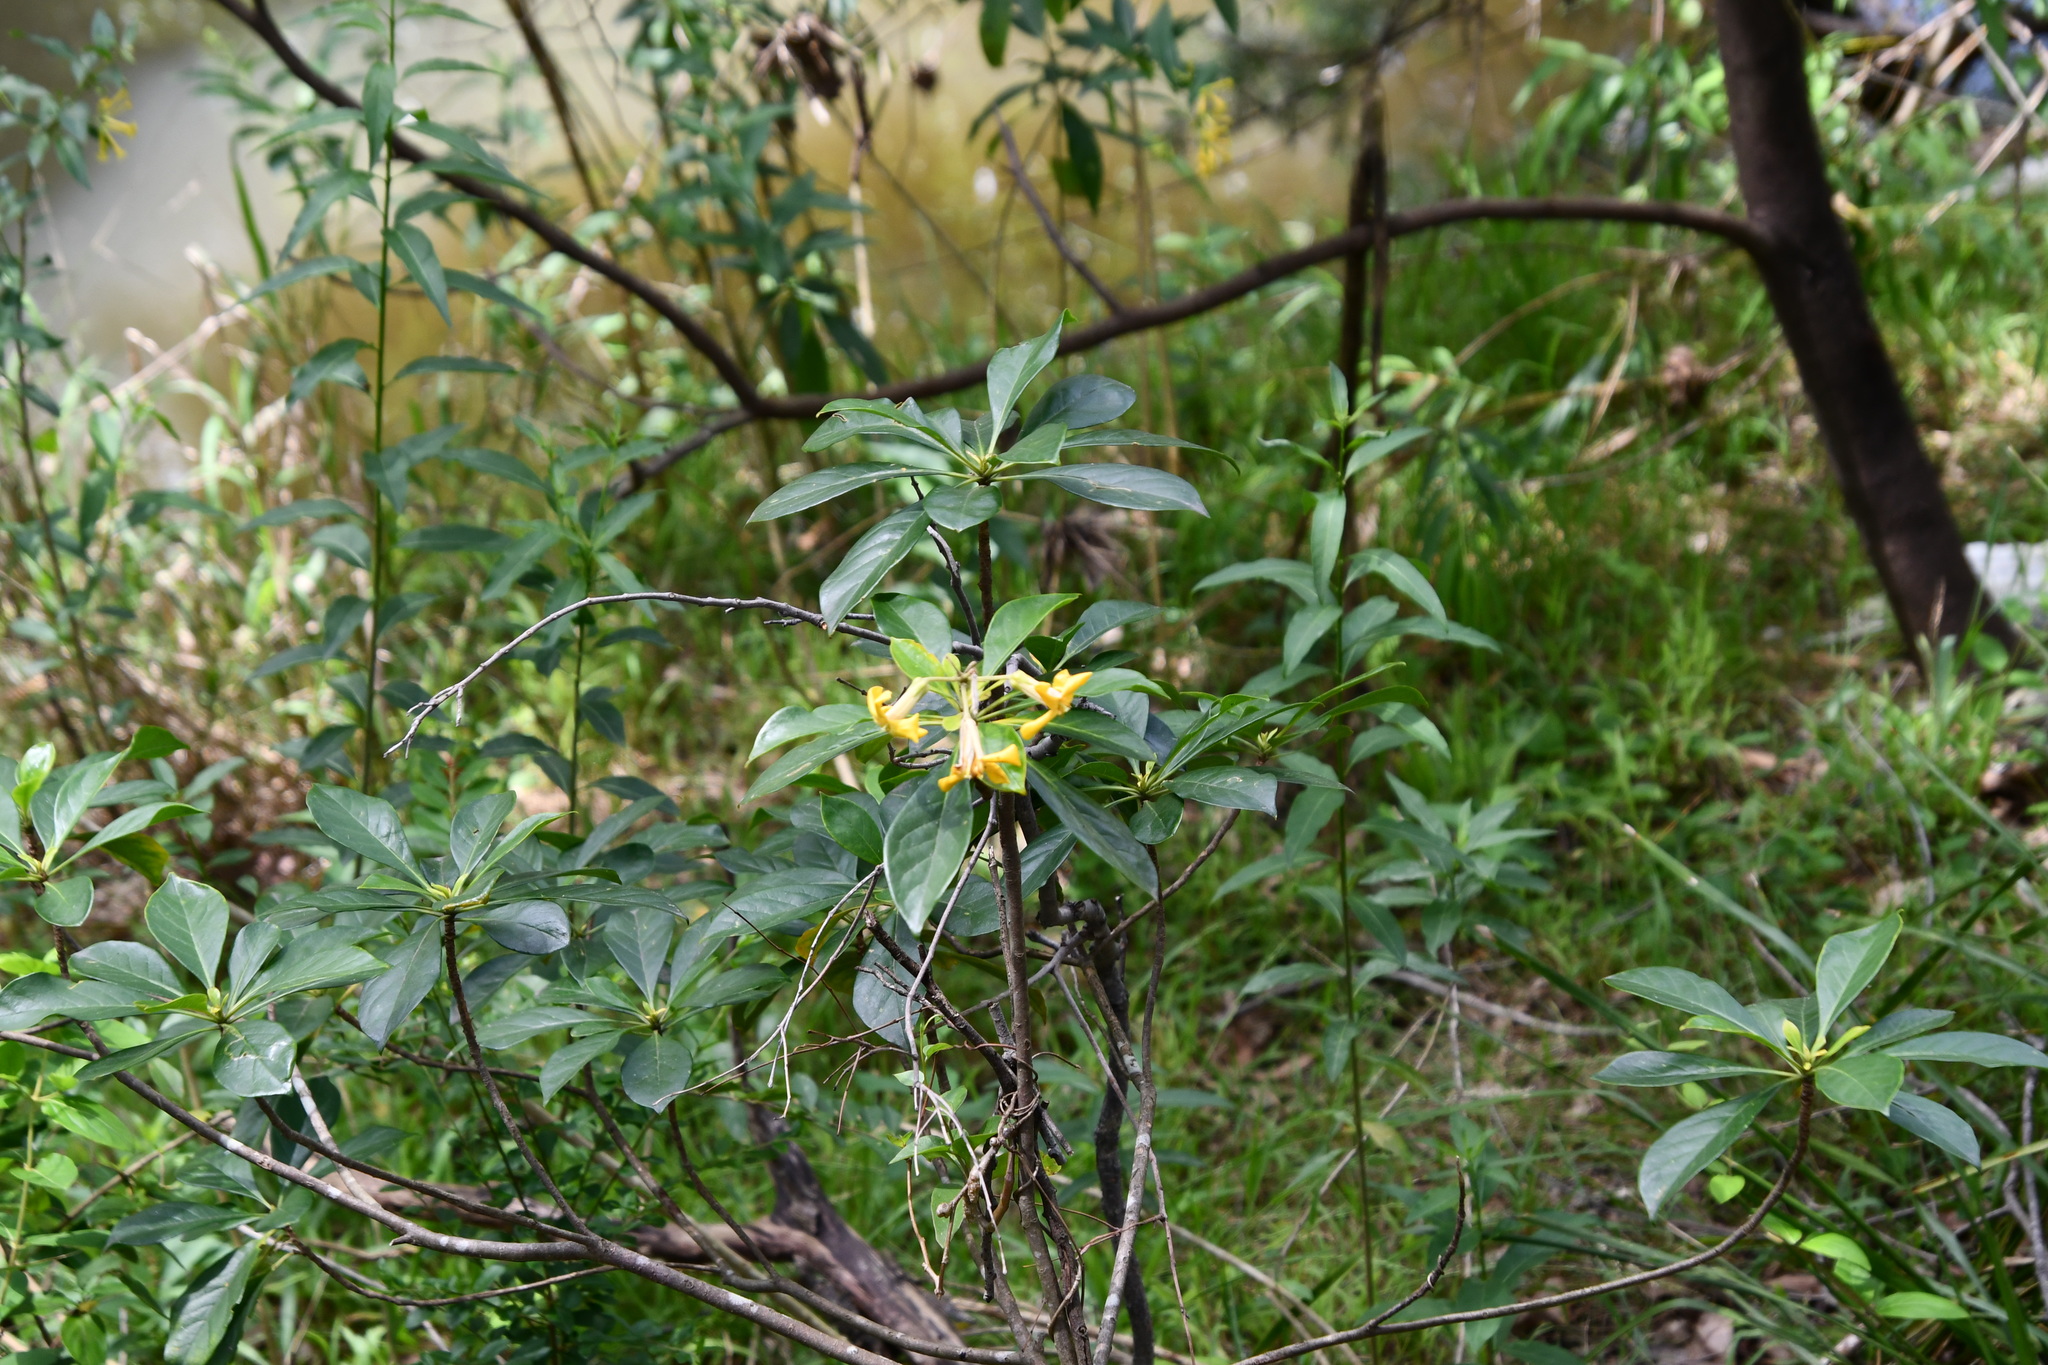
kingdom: Plantae
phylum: Tracheophyta
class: Magnoliopsida
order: Apiales
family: Pittosporaceae
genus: Hymenosporum
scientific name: Hymenosporum flavum
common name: Native frangipani
